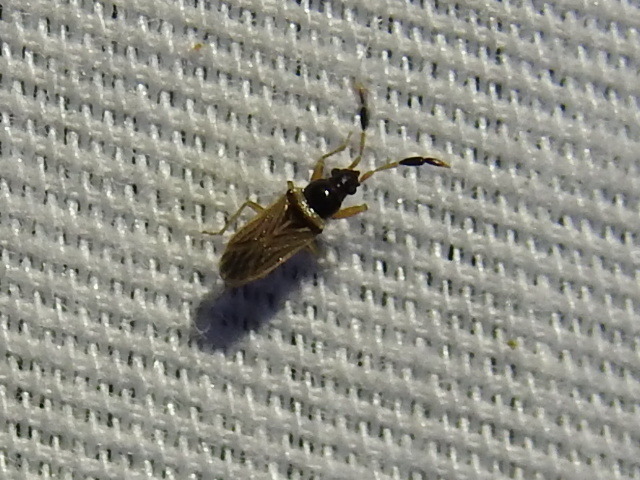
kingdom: Animalia
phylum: Arthropoda
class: Insecta
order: Hemiptera
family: Rhyparochromidae
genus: Ptochiomera
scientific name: Ptochiomera nodosa
